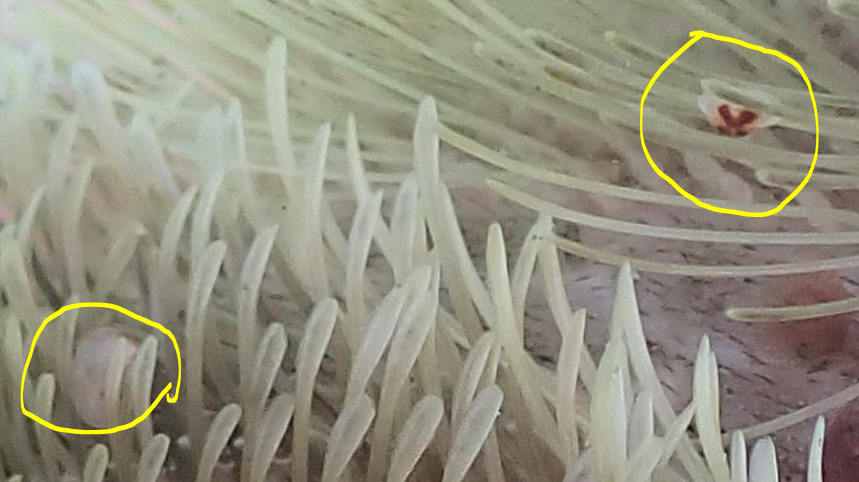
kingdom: Animalia
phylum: Mollusca
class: Bivalvia
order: Galeommatida
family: Lasaeidae
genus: Montacuta
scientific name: Montacuta semiradiata
